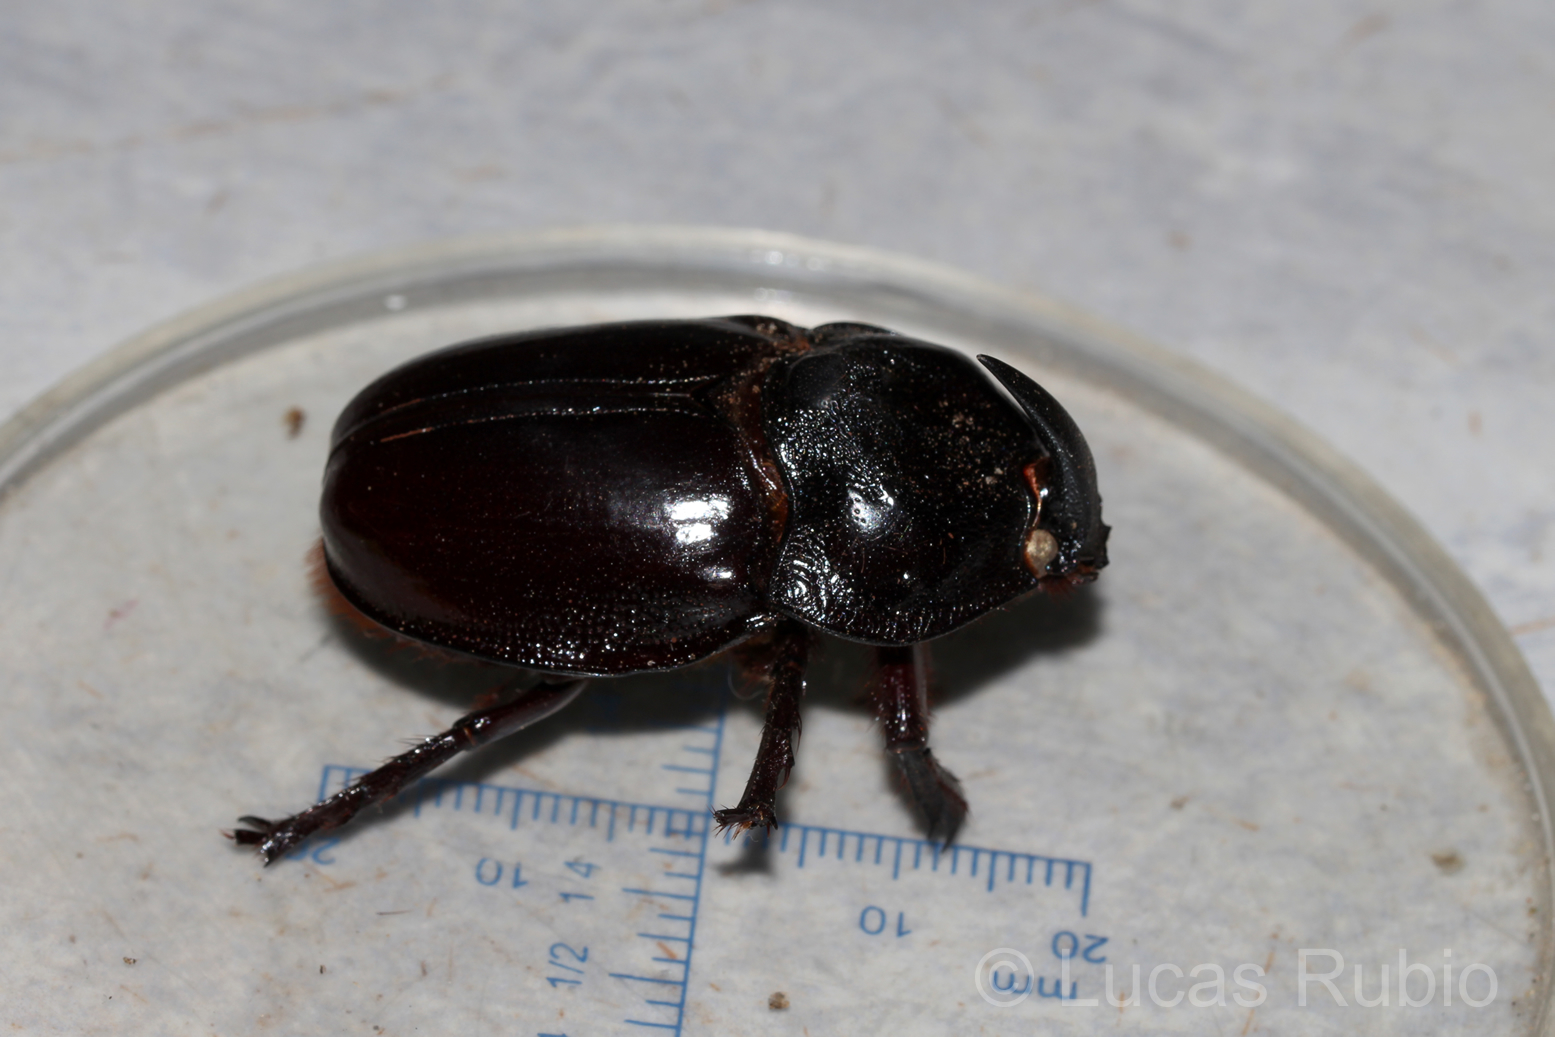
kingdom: Animalia
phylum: Arthropoda
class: Insecta
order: Coleoptera
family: Scarabaeidae
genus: Enema
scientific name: Enema pan
